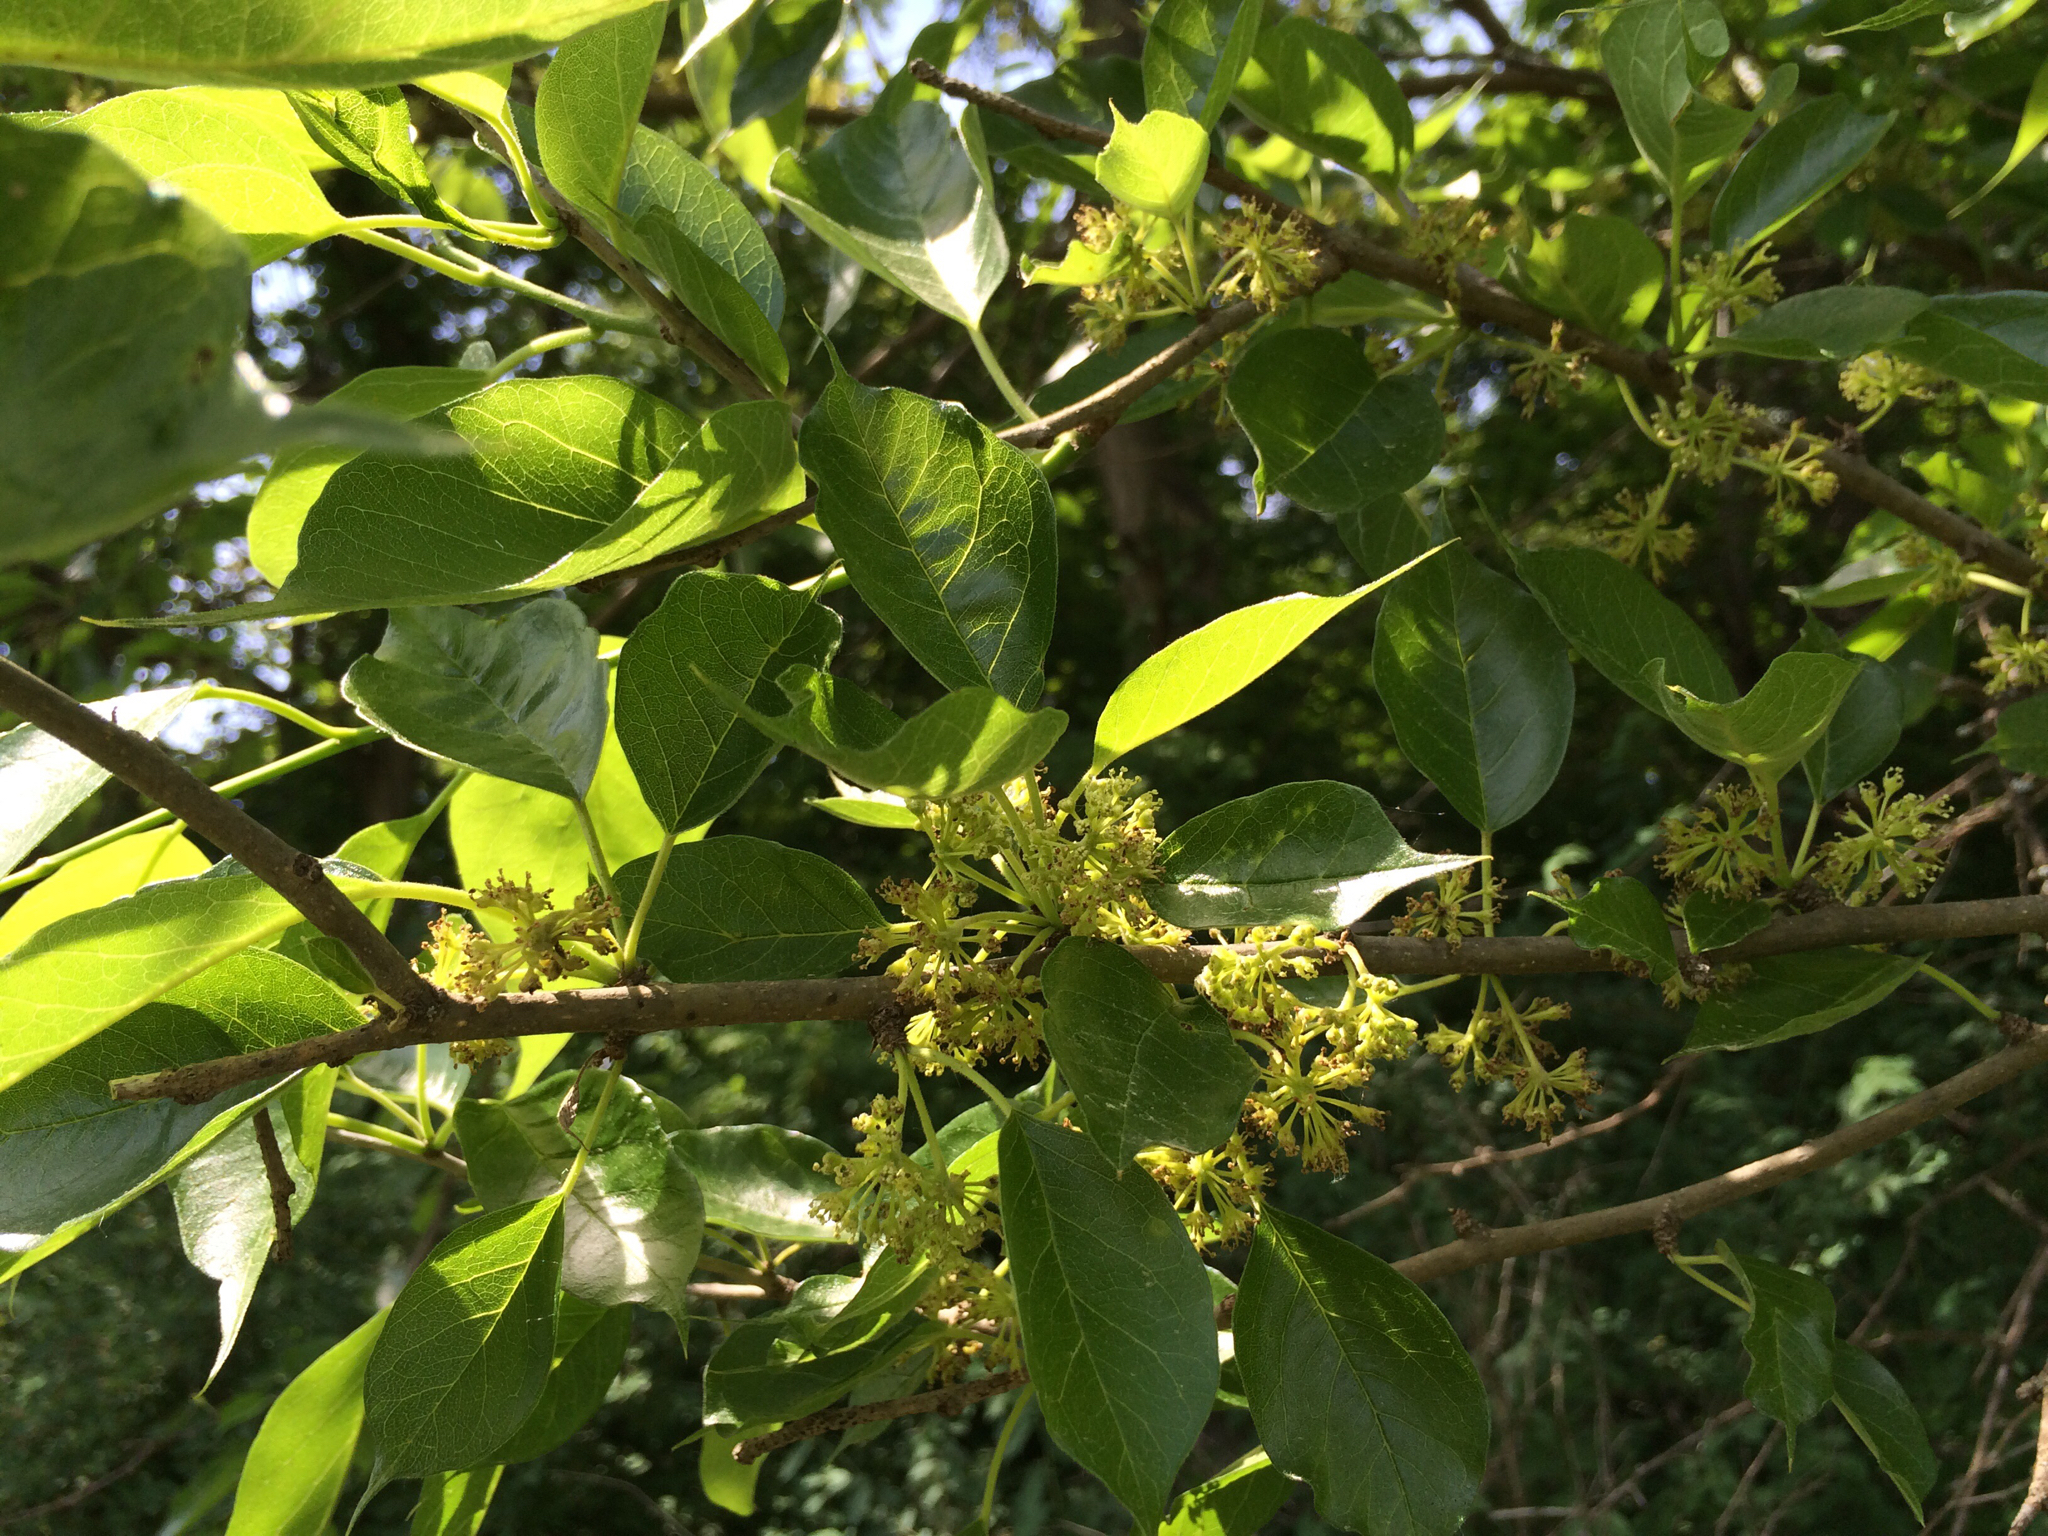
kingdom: Plantae
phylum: Tracheophyta
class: Magnoliopsida
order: Rosales
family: Moraceae
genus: Maclura
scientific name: Maclura pomifera
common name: Osage-orange
